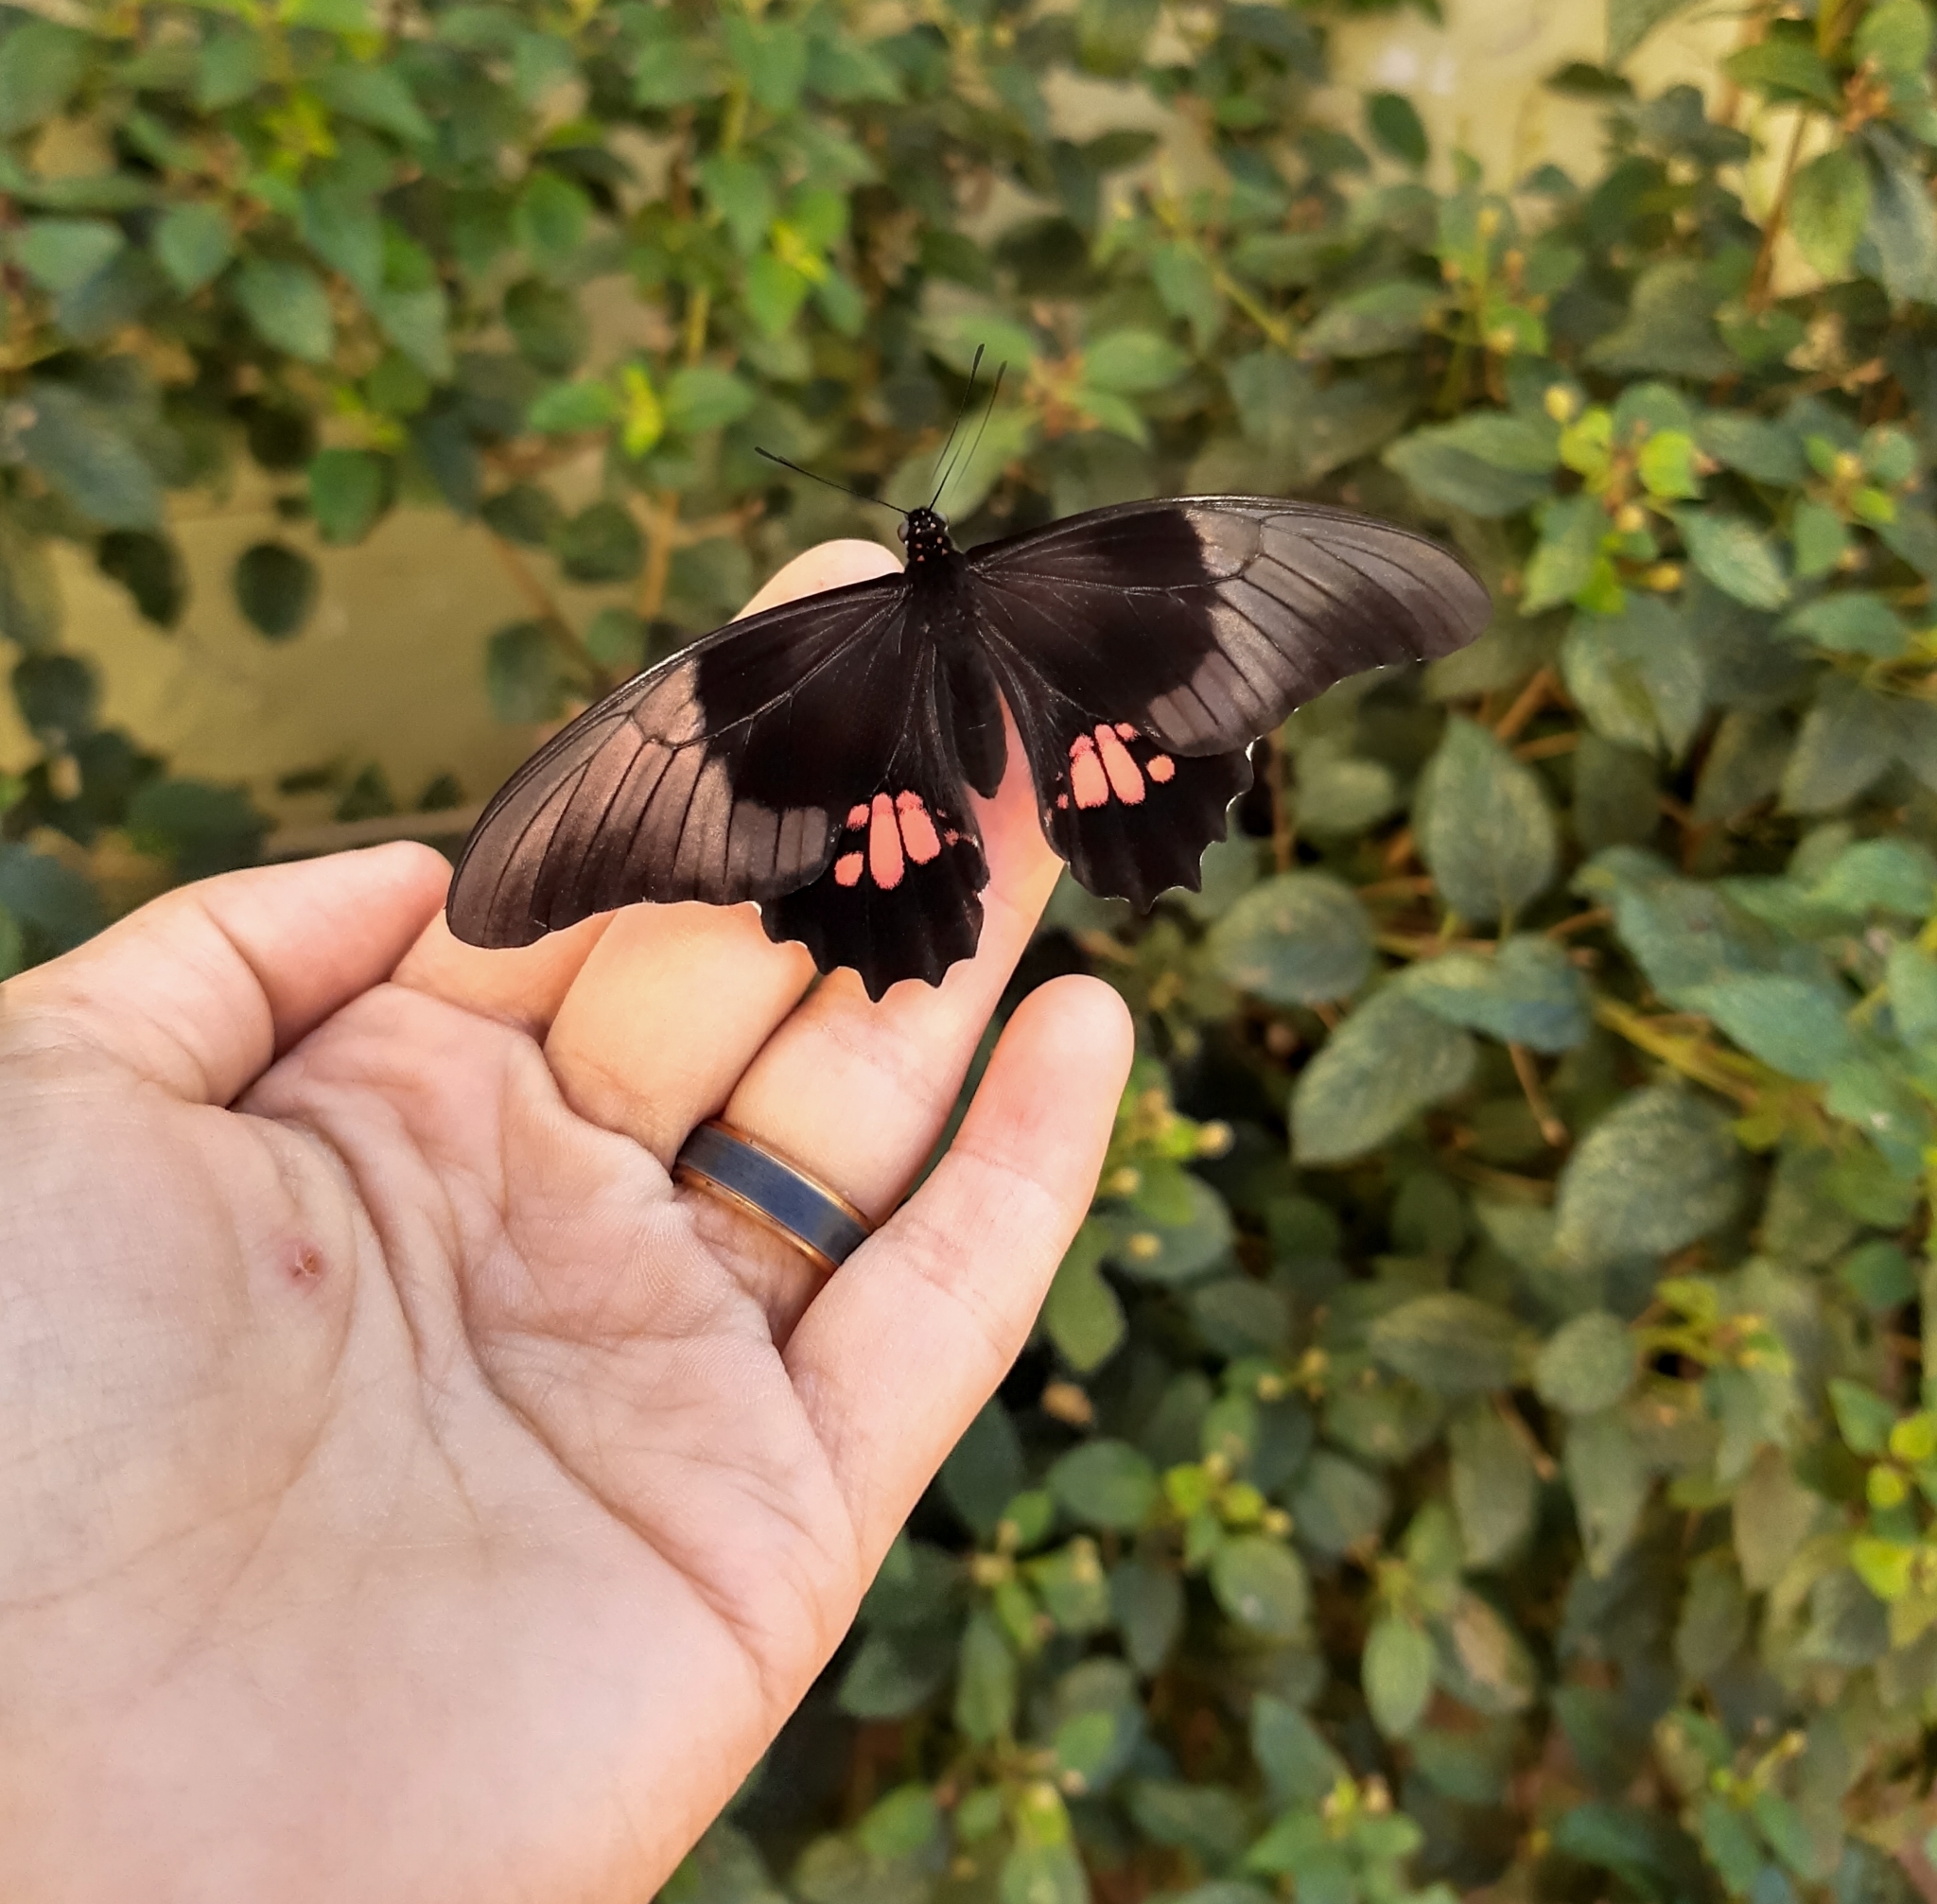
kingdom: Animalia
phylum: Arthropoda
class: Insecta
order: Lepidoptera
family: Papilionidae
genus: Papilio
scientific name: Papilio anchisiades
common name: Idaes swallowtail
